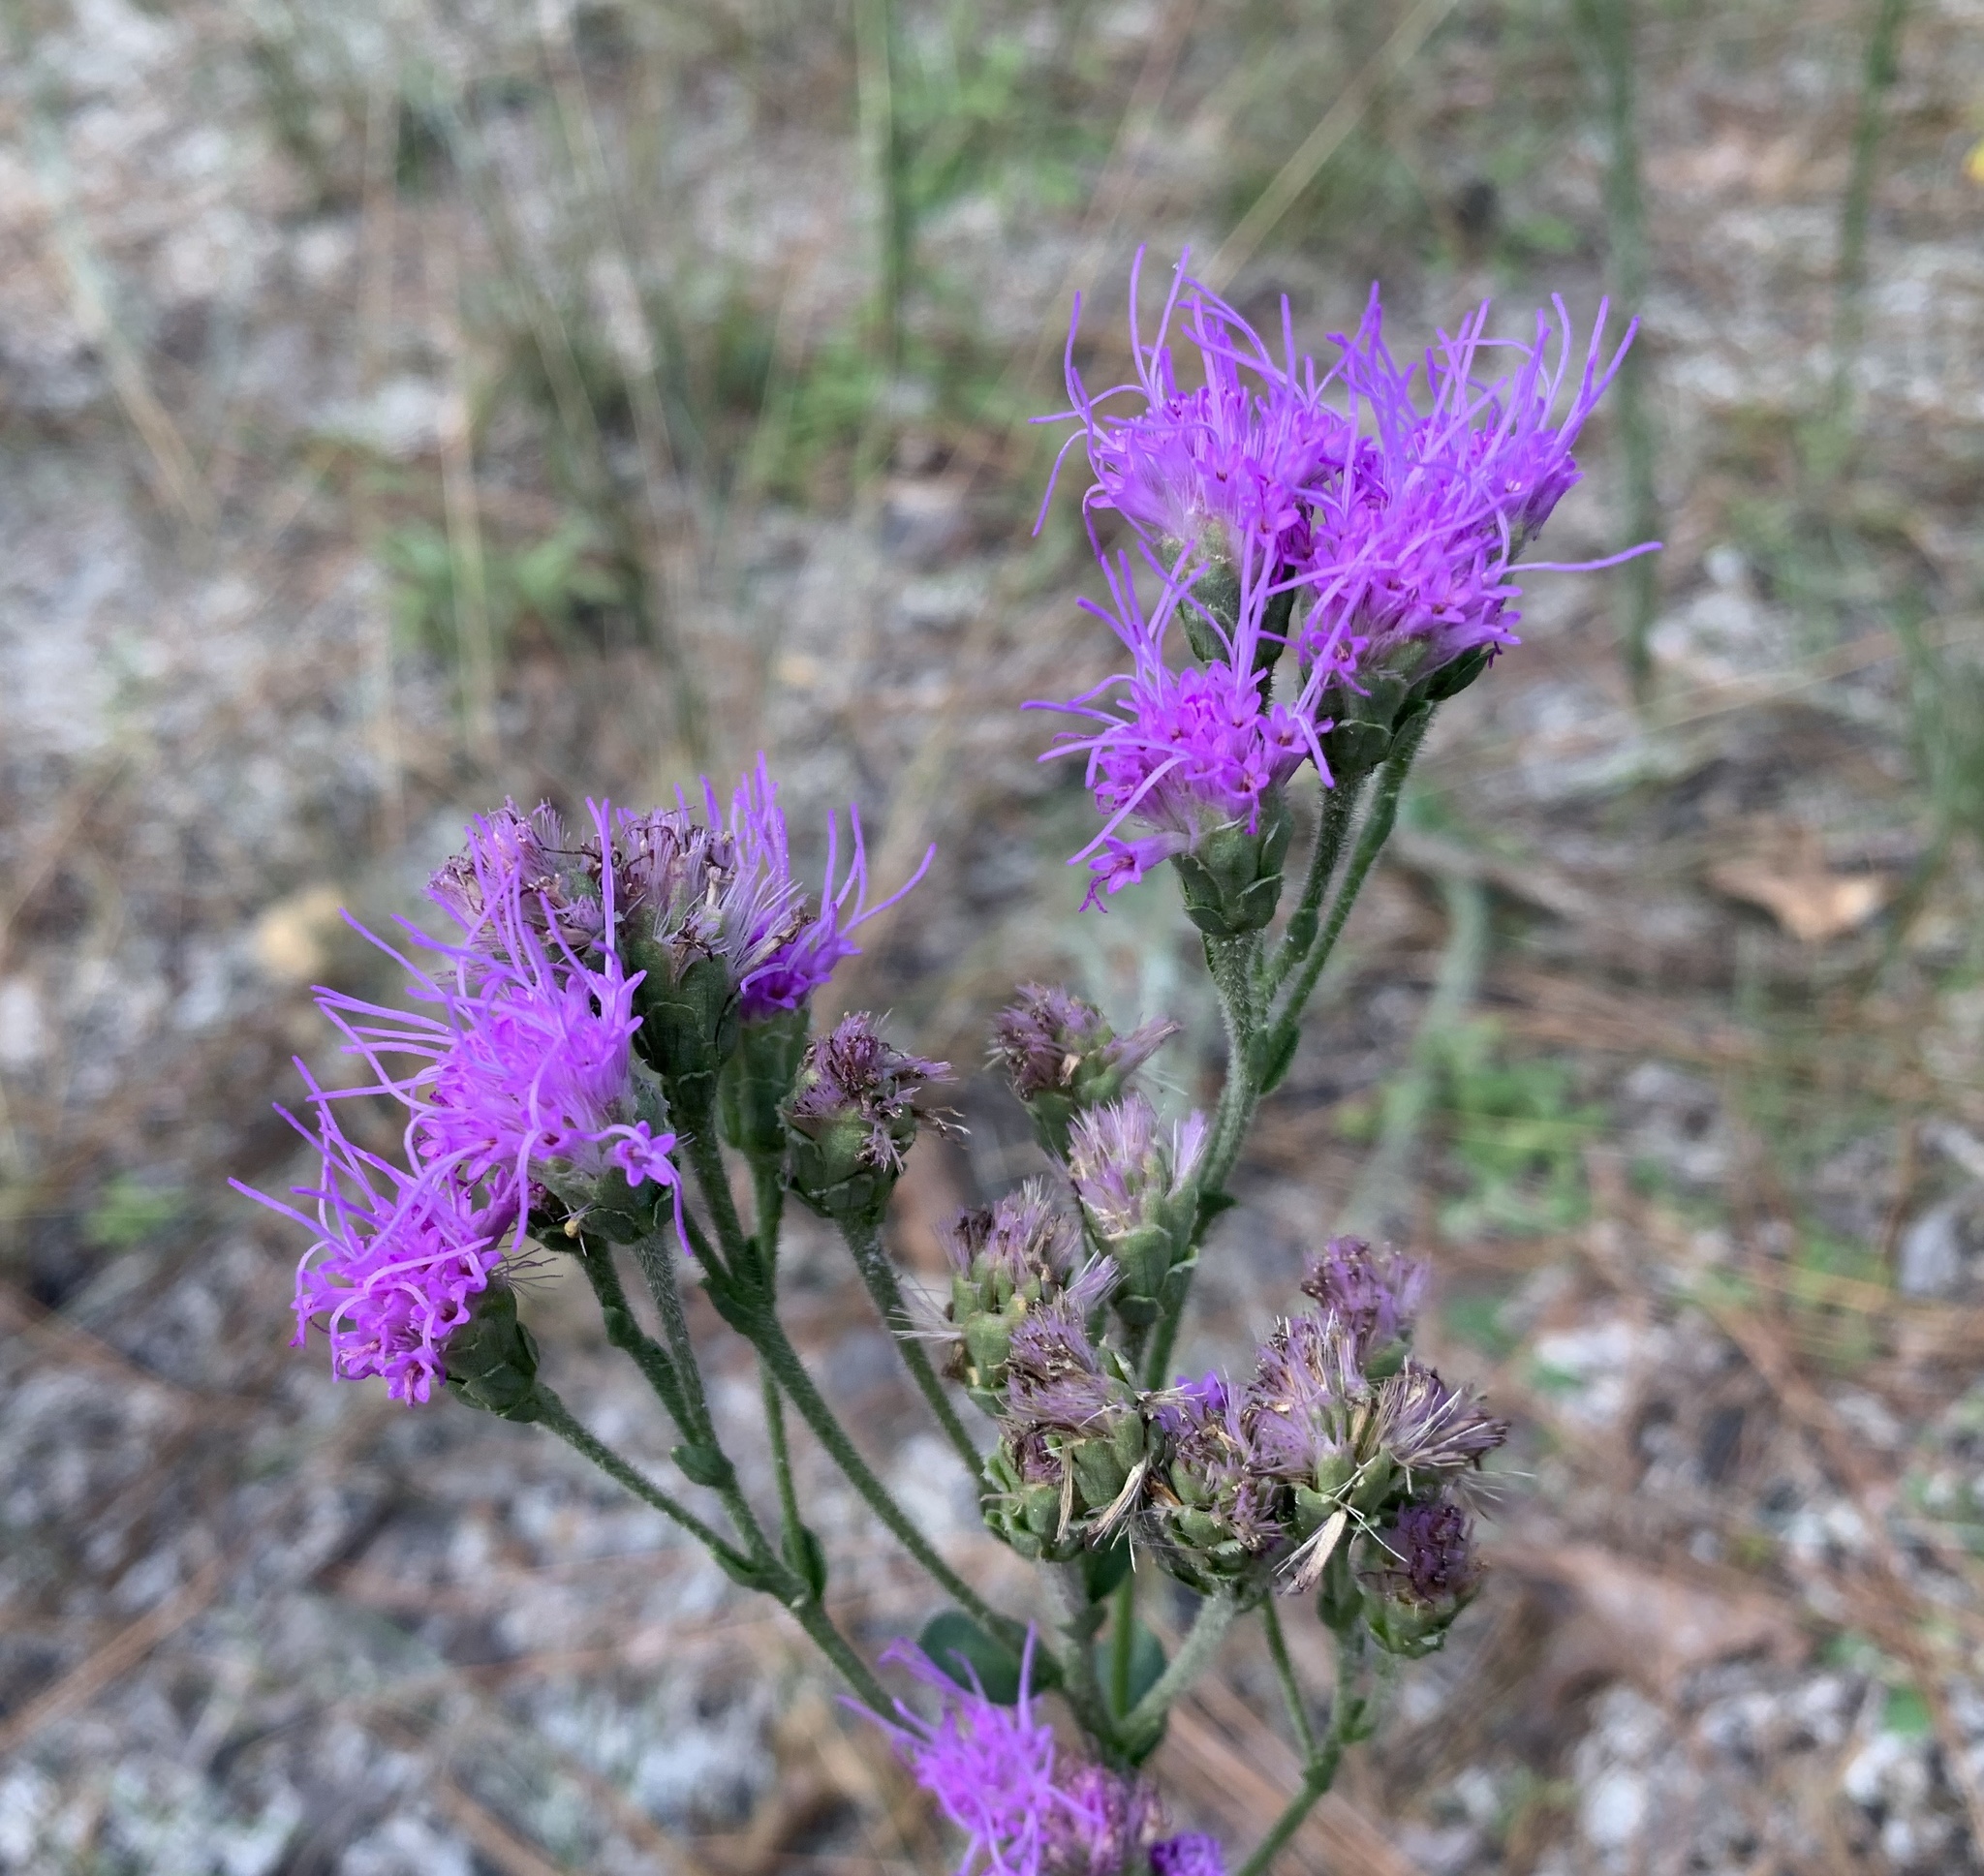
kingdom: Plantae
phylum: Tracheophyta
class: Magnoliopsida
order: Asterales
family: Asteraceae
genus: Carphephorus
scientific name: Carphephorus corymbosus
